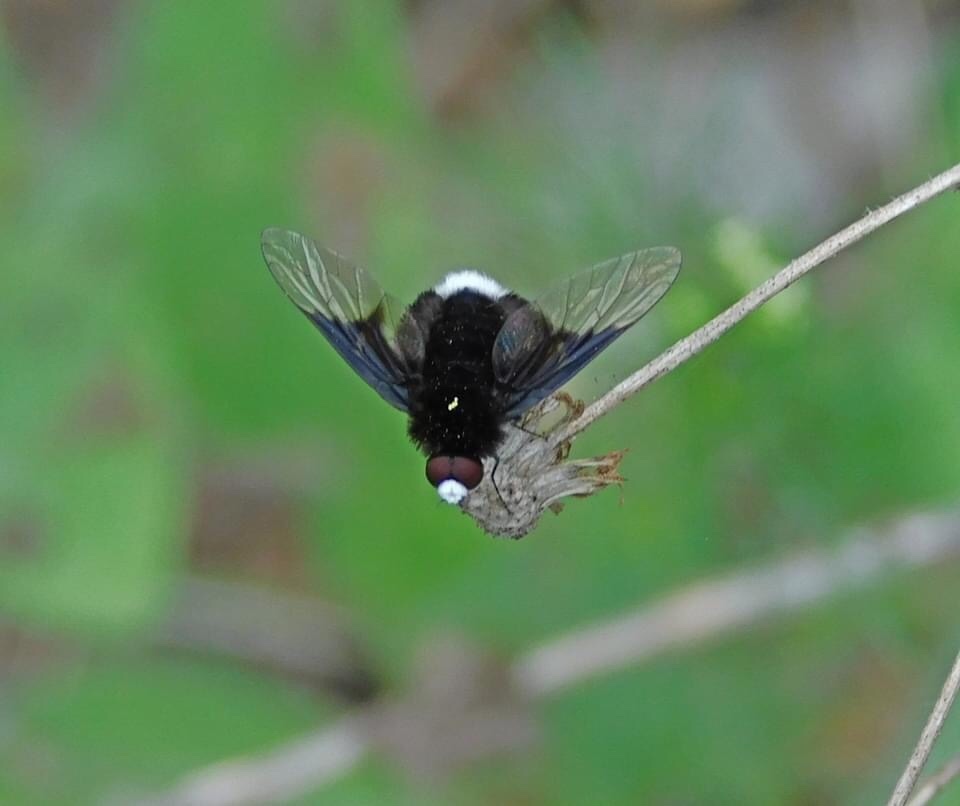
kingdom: Animalia
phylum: Arthropoda
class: Insecta
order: Diptera
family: Bombyliidae
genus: Ogcodocera
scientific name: Ogcodocera leucoprocta
